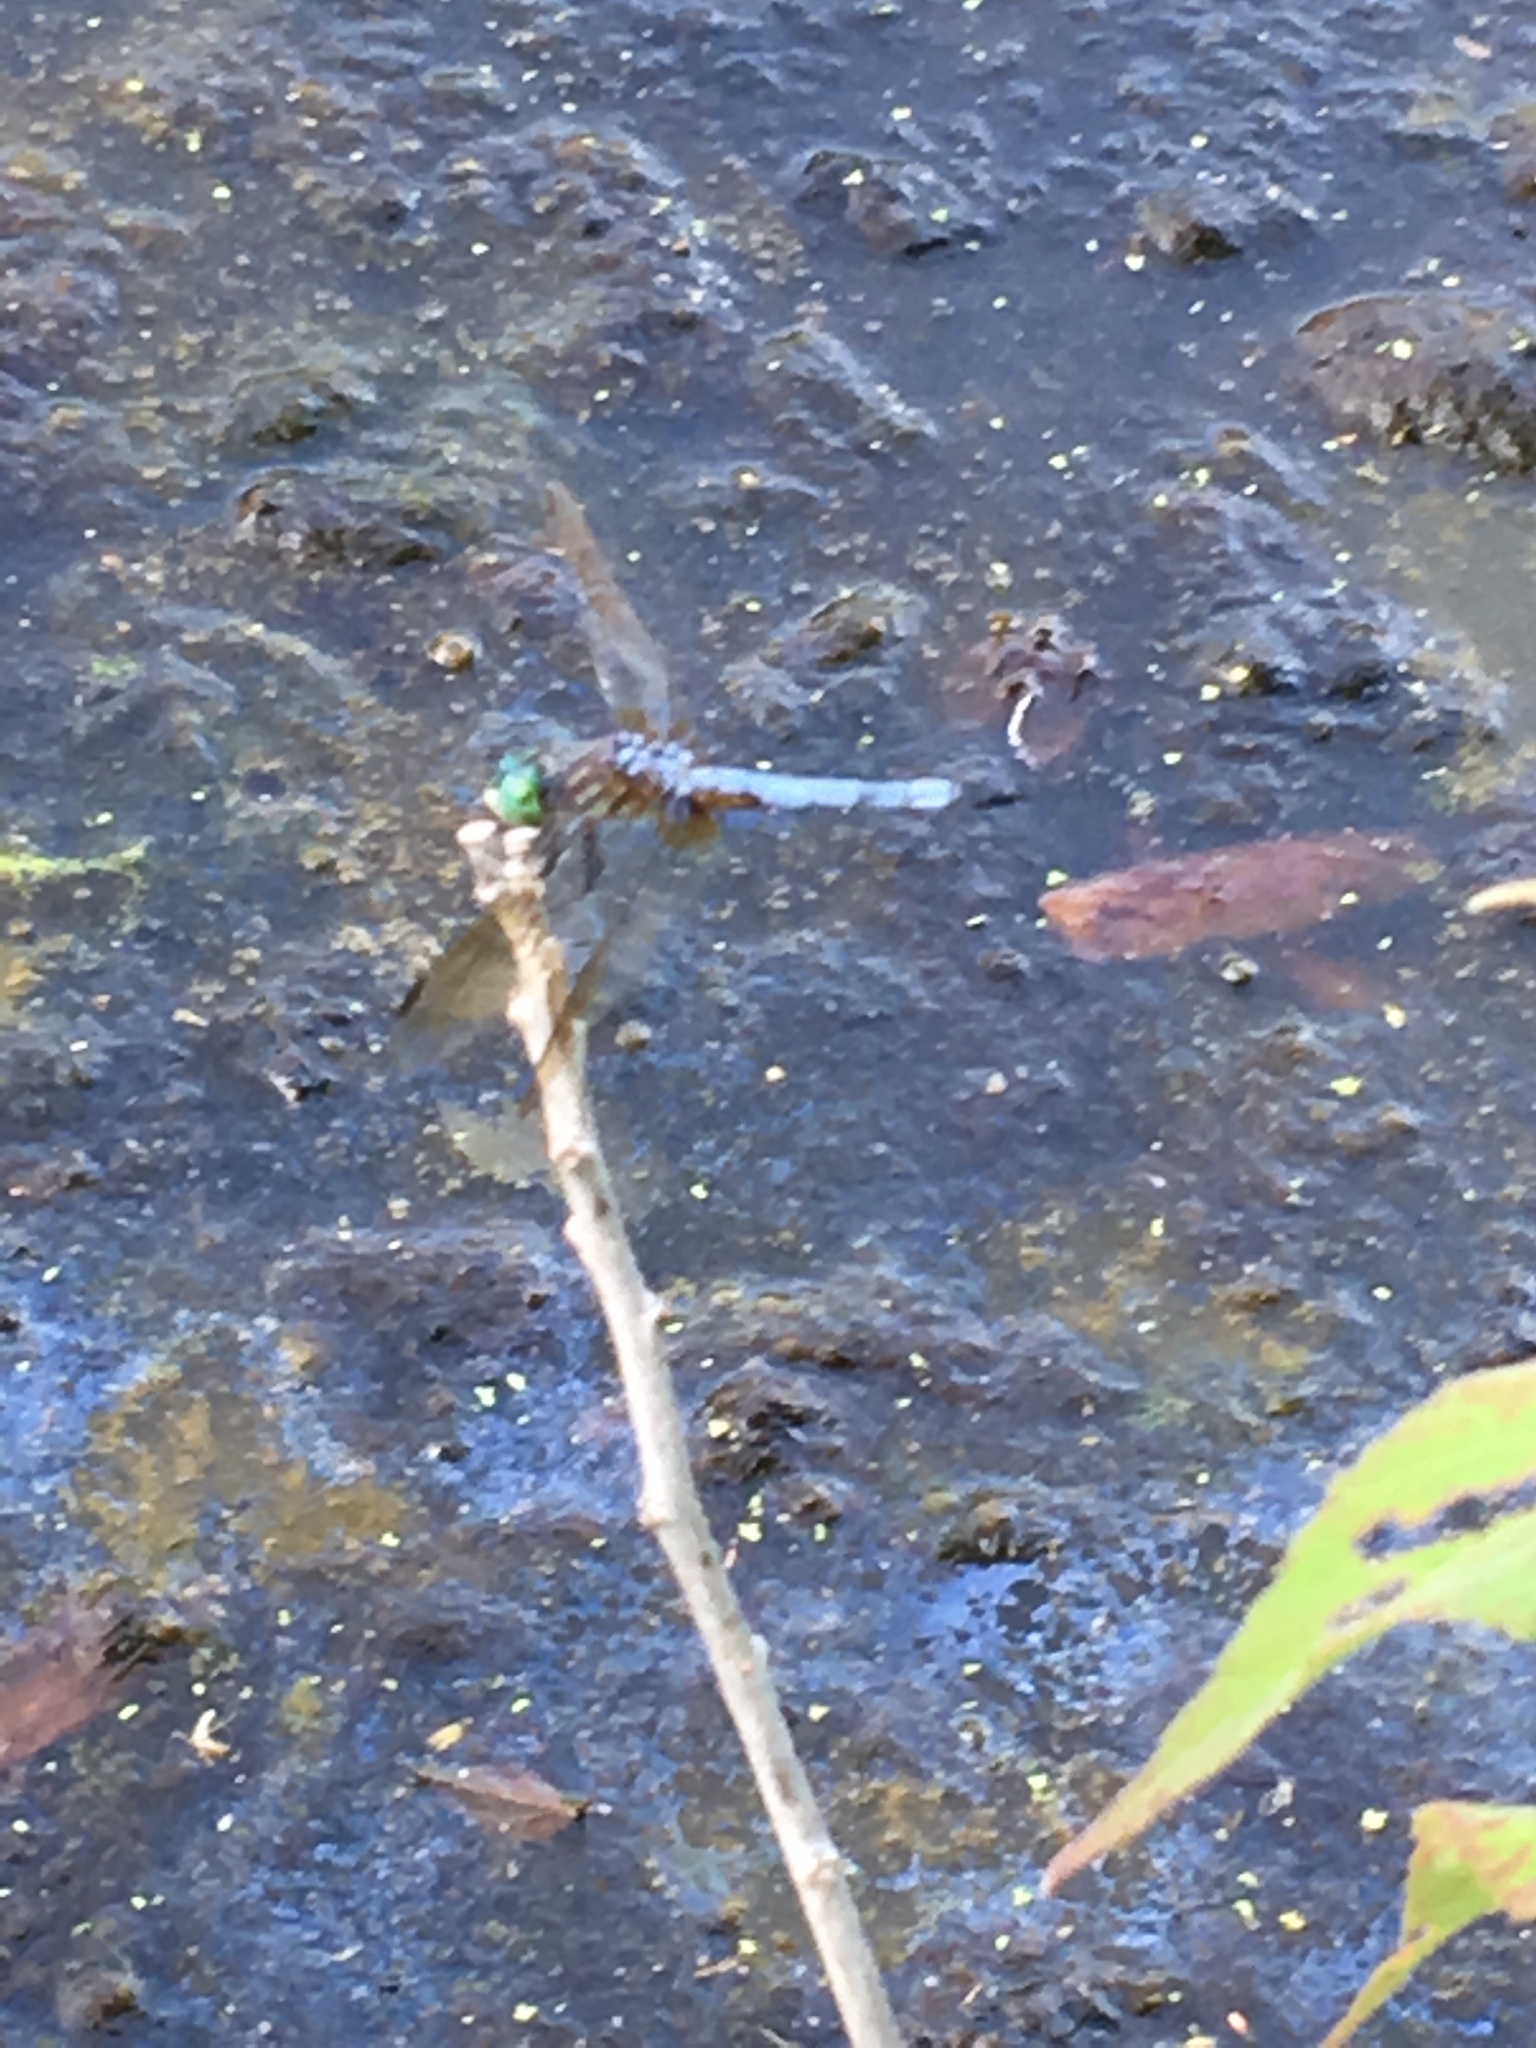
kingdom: Animalia
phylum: Arthropoda
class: Insecta
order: Odonata
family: Libellulidae
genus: Pachydiplax
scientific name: Pachydiplax longipennis
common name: Blue dasher
